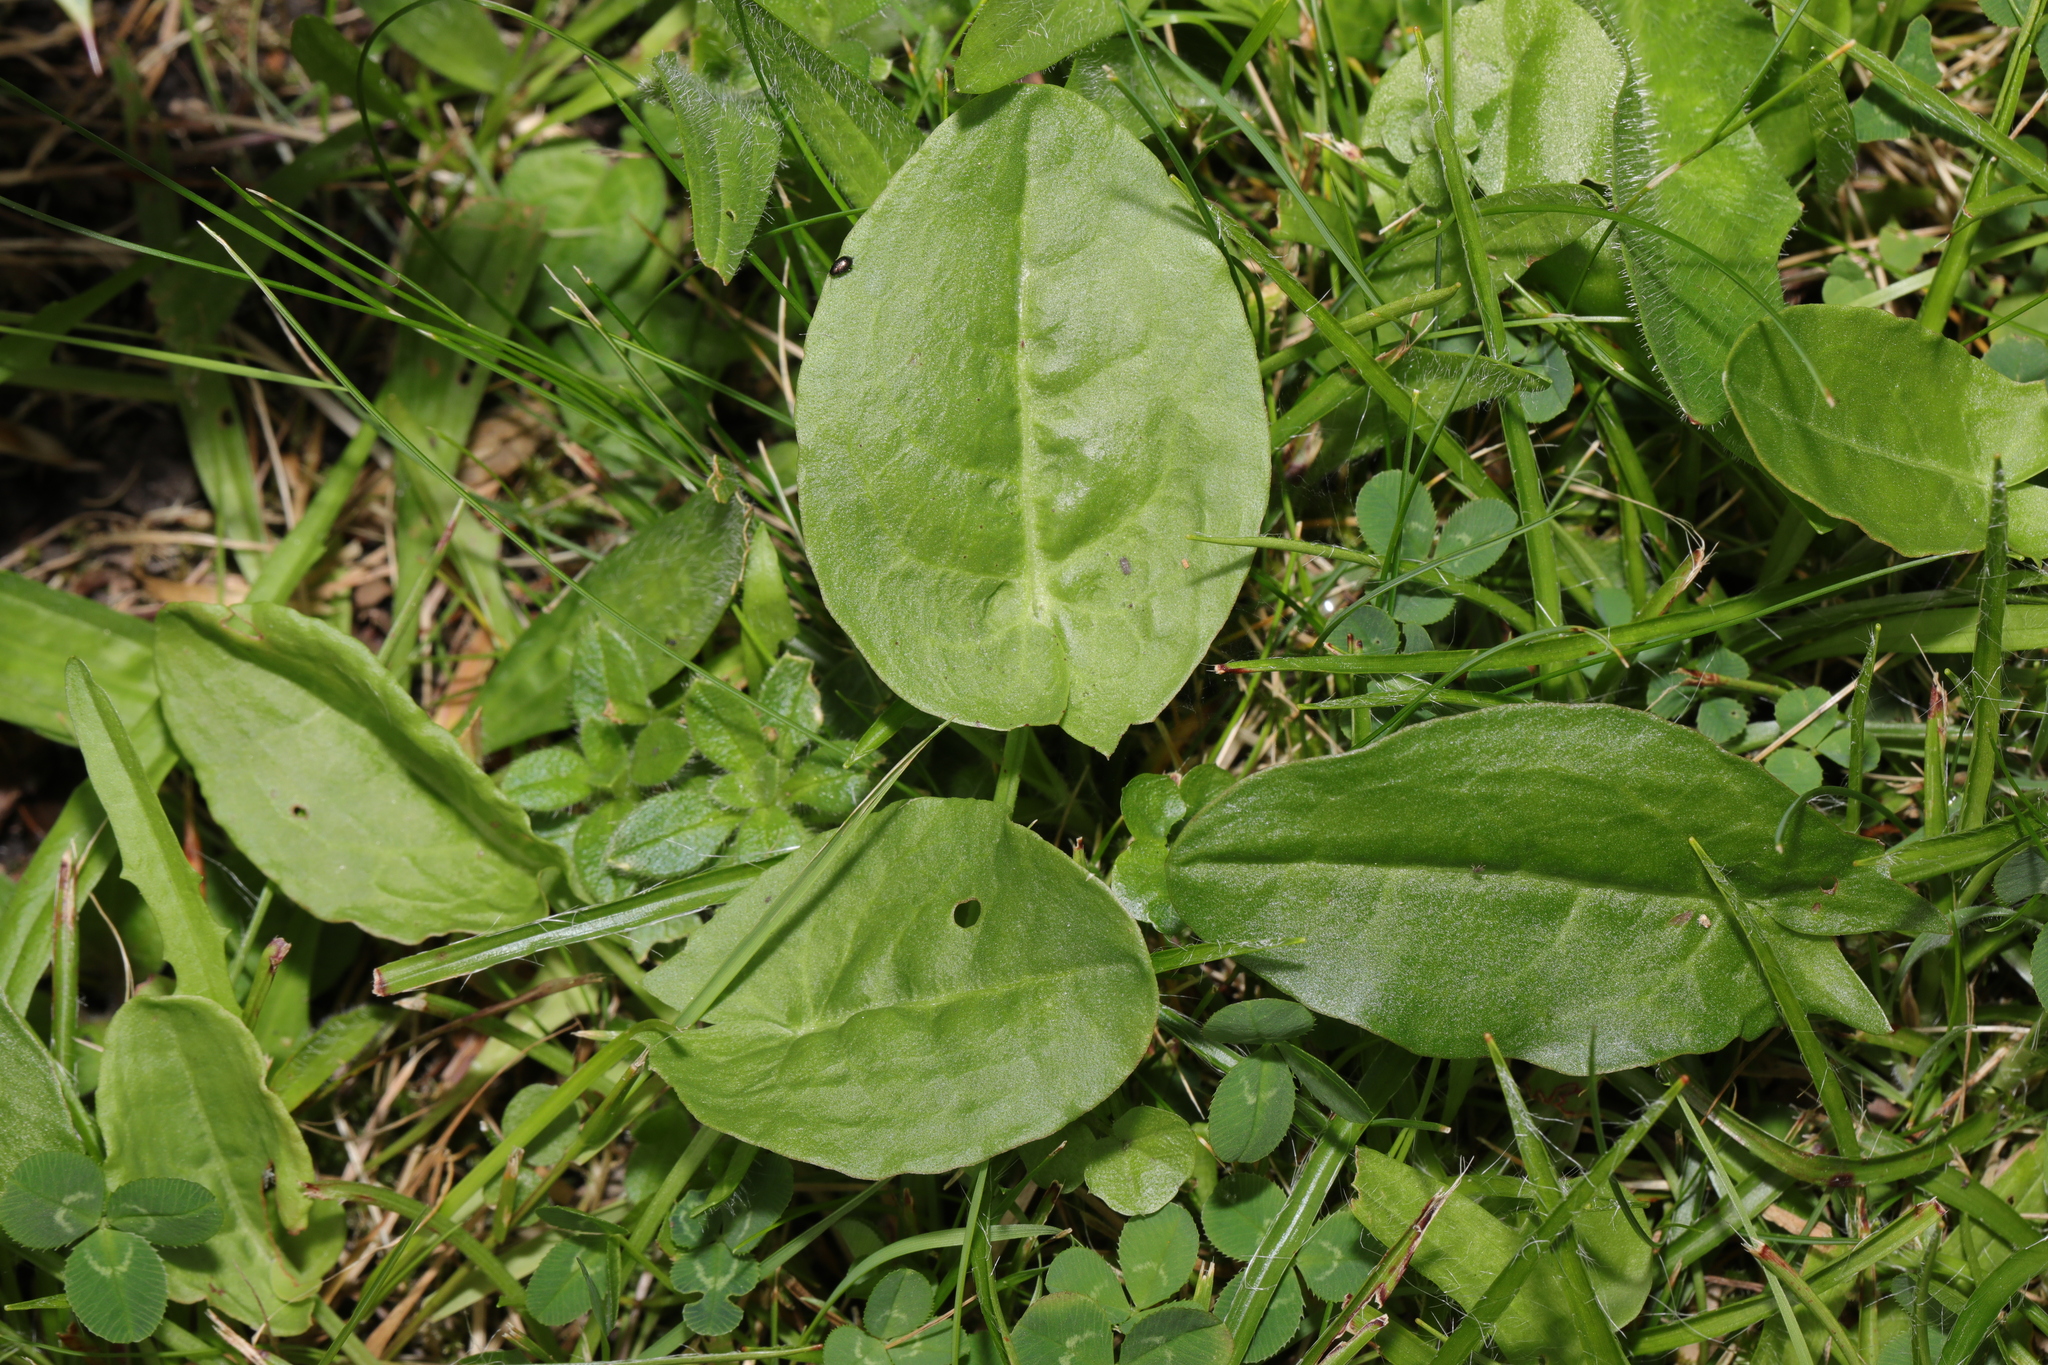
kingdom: Plantae
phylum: Tracheophyta
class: Magnoliopsida
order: Caryophyllales
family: Polygonaceae
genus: Rumex
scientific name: Rumex acetosa
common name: Garden sorrel
